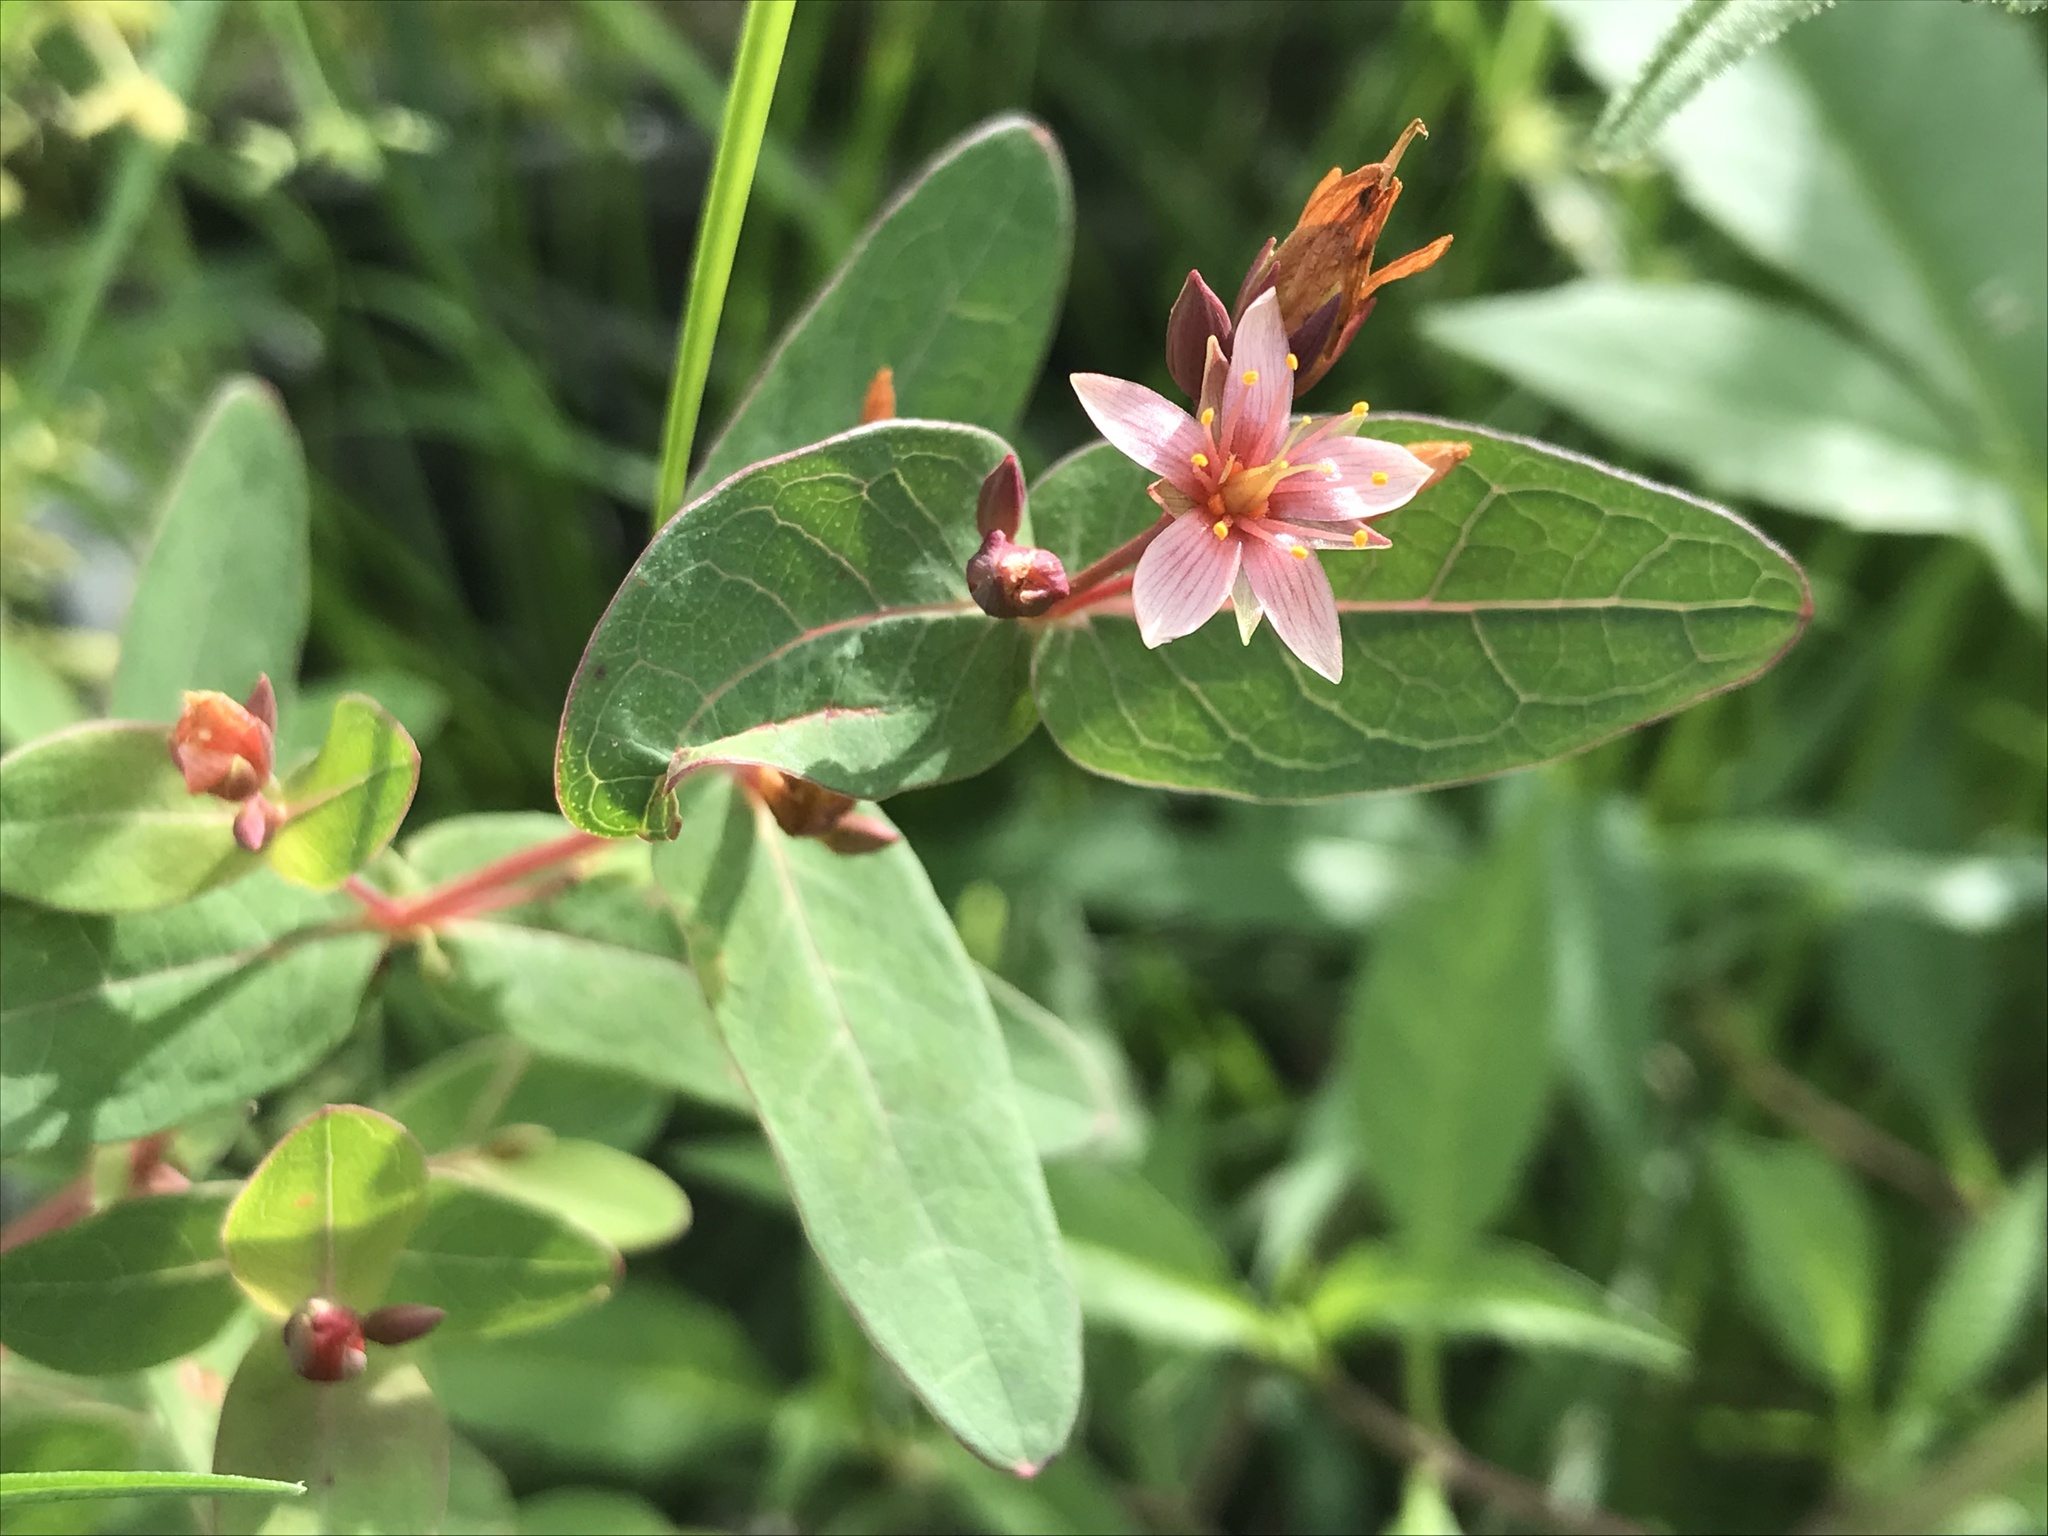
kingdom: Plantae
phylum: Tracheophyta
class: Magnoliopsida
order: Malpighiales
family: Hypericaceae
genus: Triadenum
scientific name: Triadenum virginicum
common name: Marsh st. john's-wort
